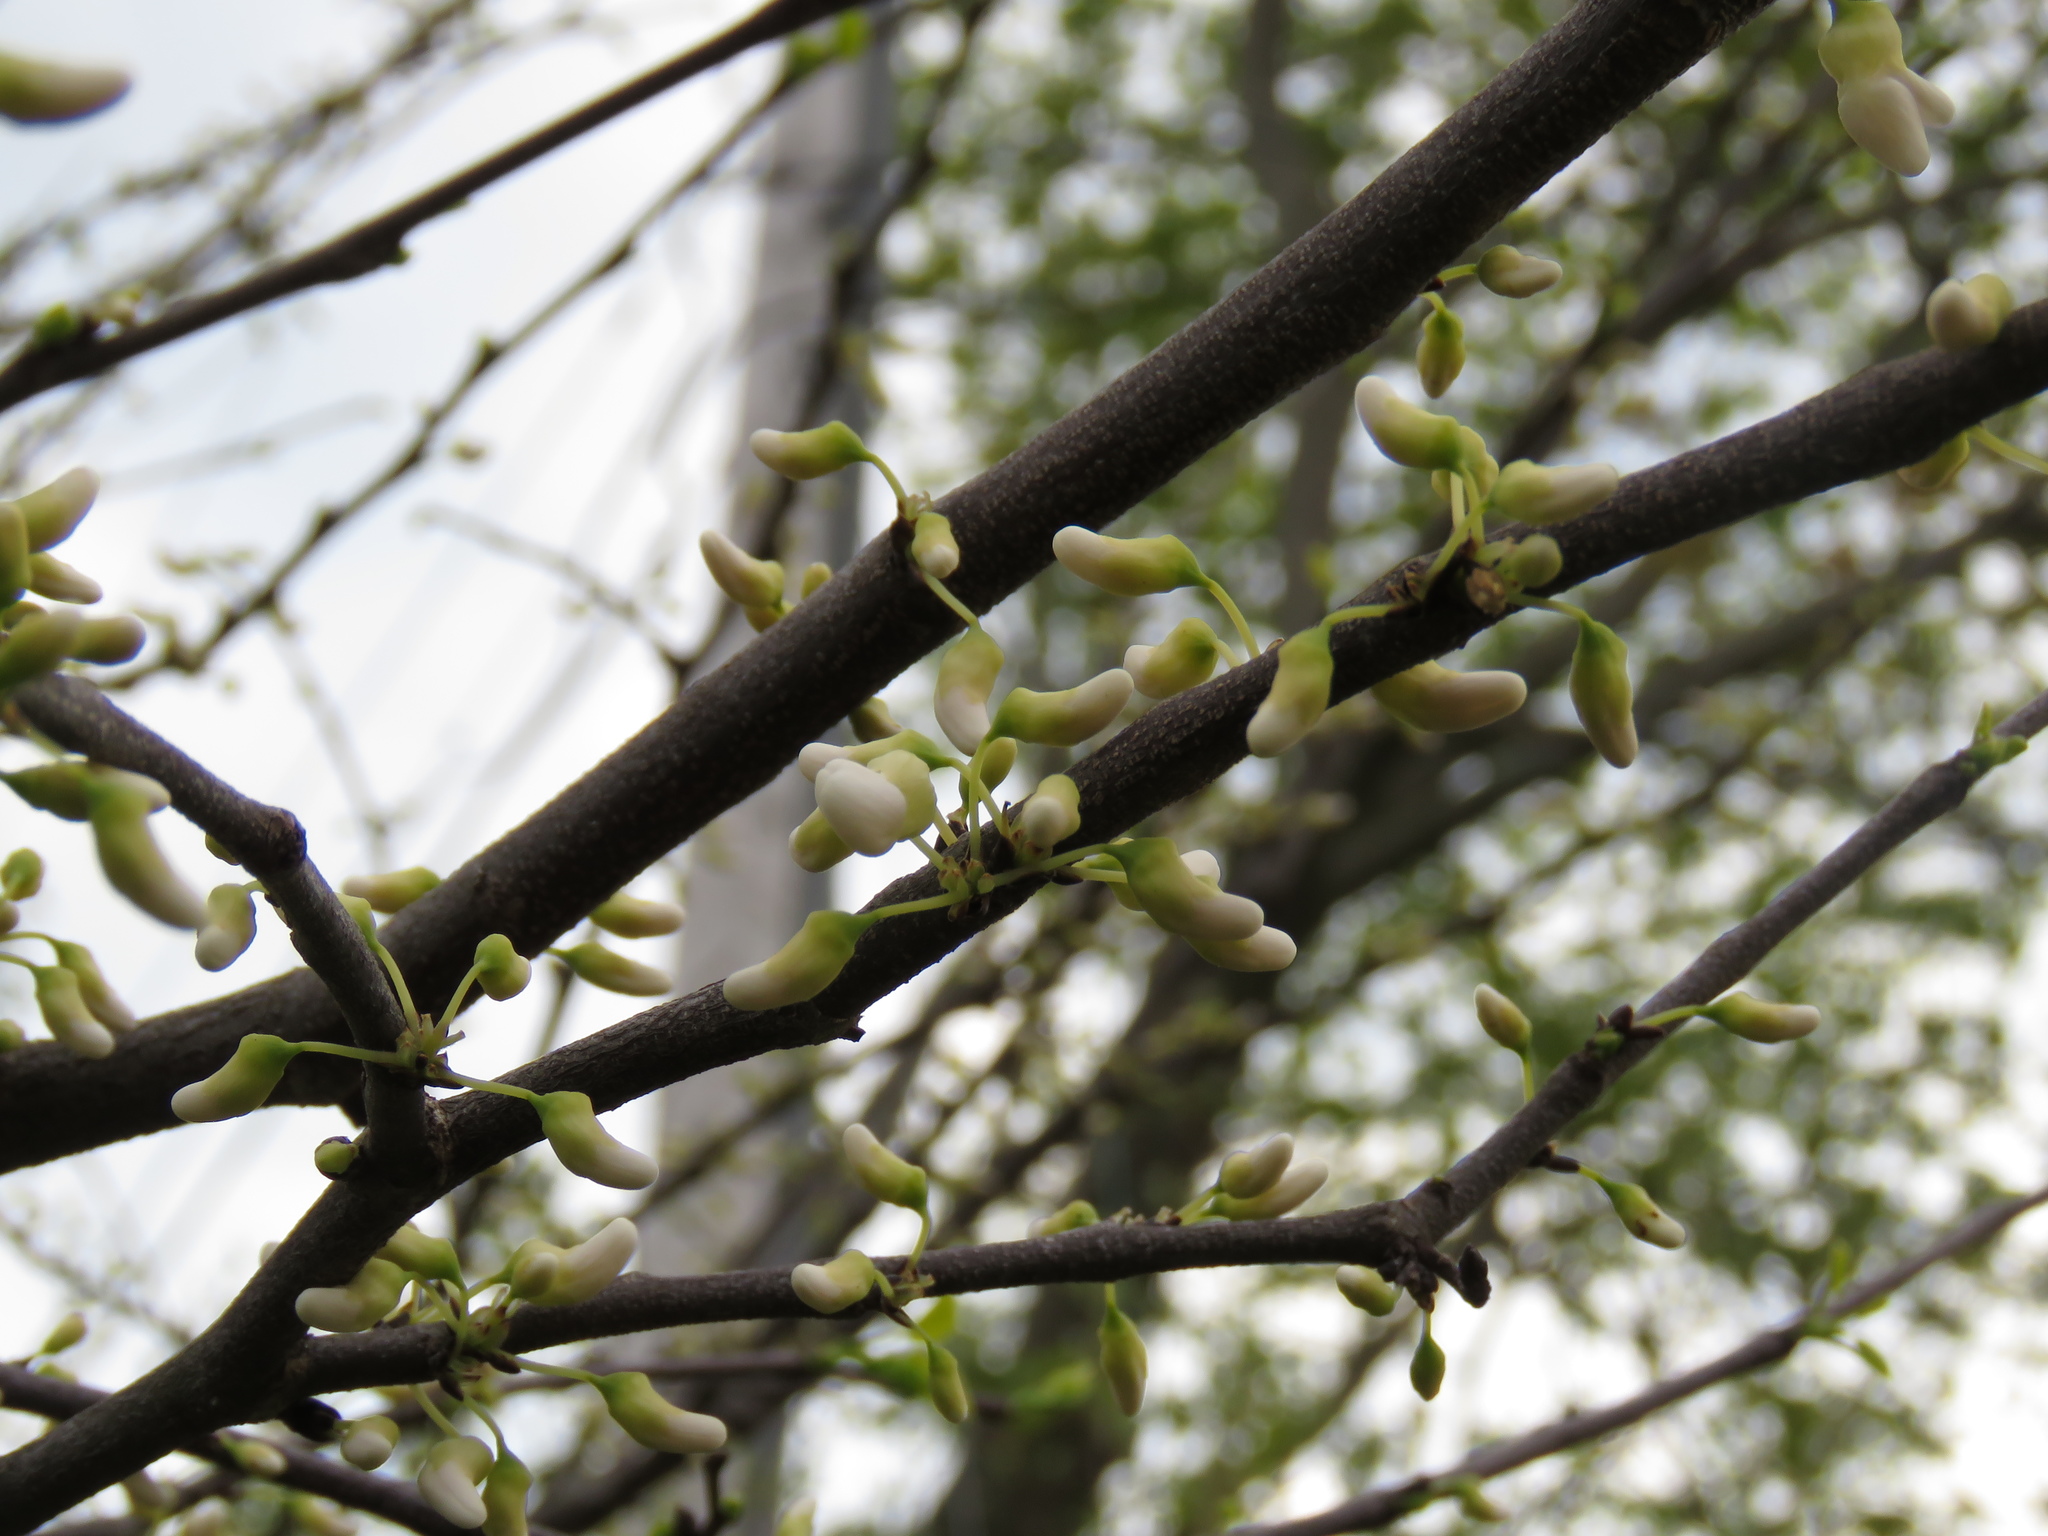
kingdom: Plantae
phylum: Tracheophyta
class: Magnoliopsida
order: Fabales
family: Fabaceae
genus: Cercis
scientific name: Cercis canadensis
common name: Eastern redbud
